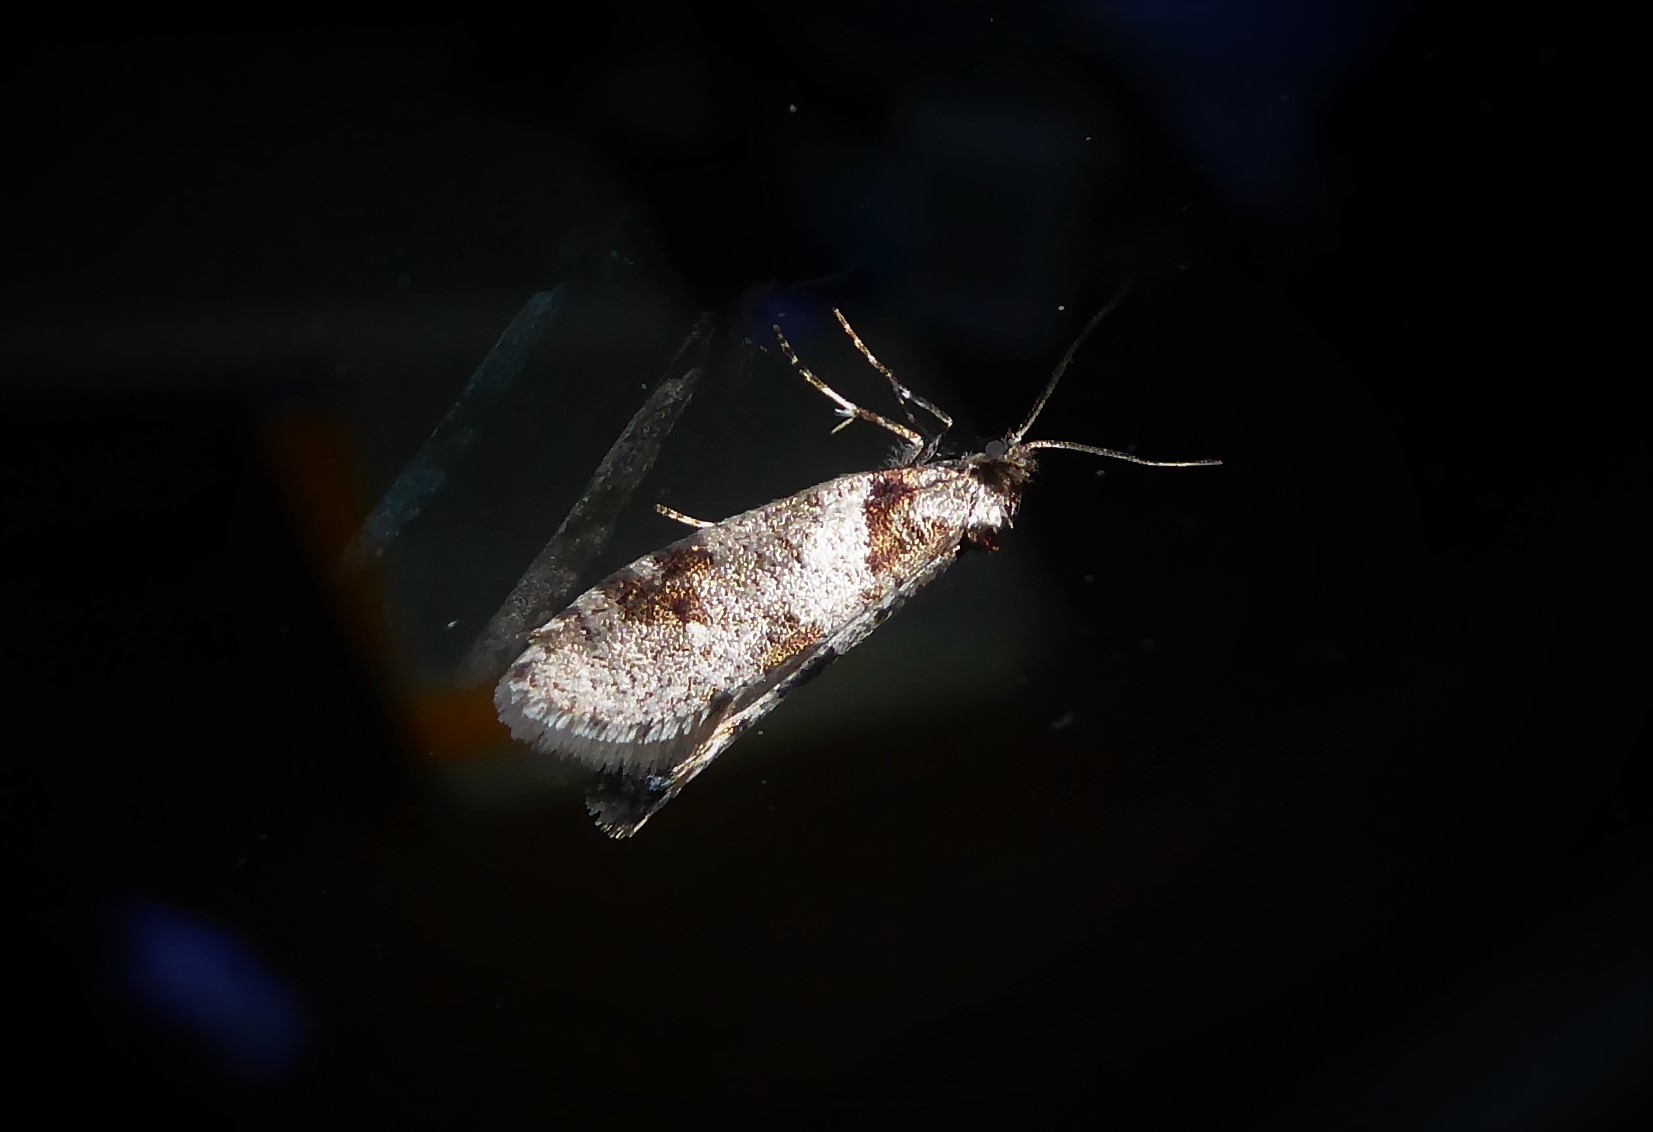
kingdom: Animalia
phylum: Arthropoda
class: Insecta
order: Lepidoptera
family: Psychidae
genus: Lepidoscia
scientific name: Lepidoscia heliochares
